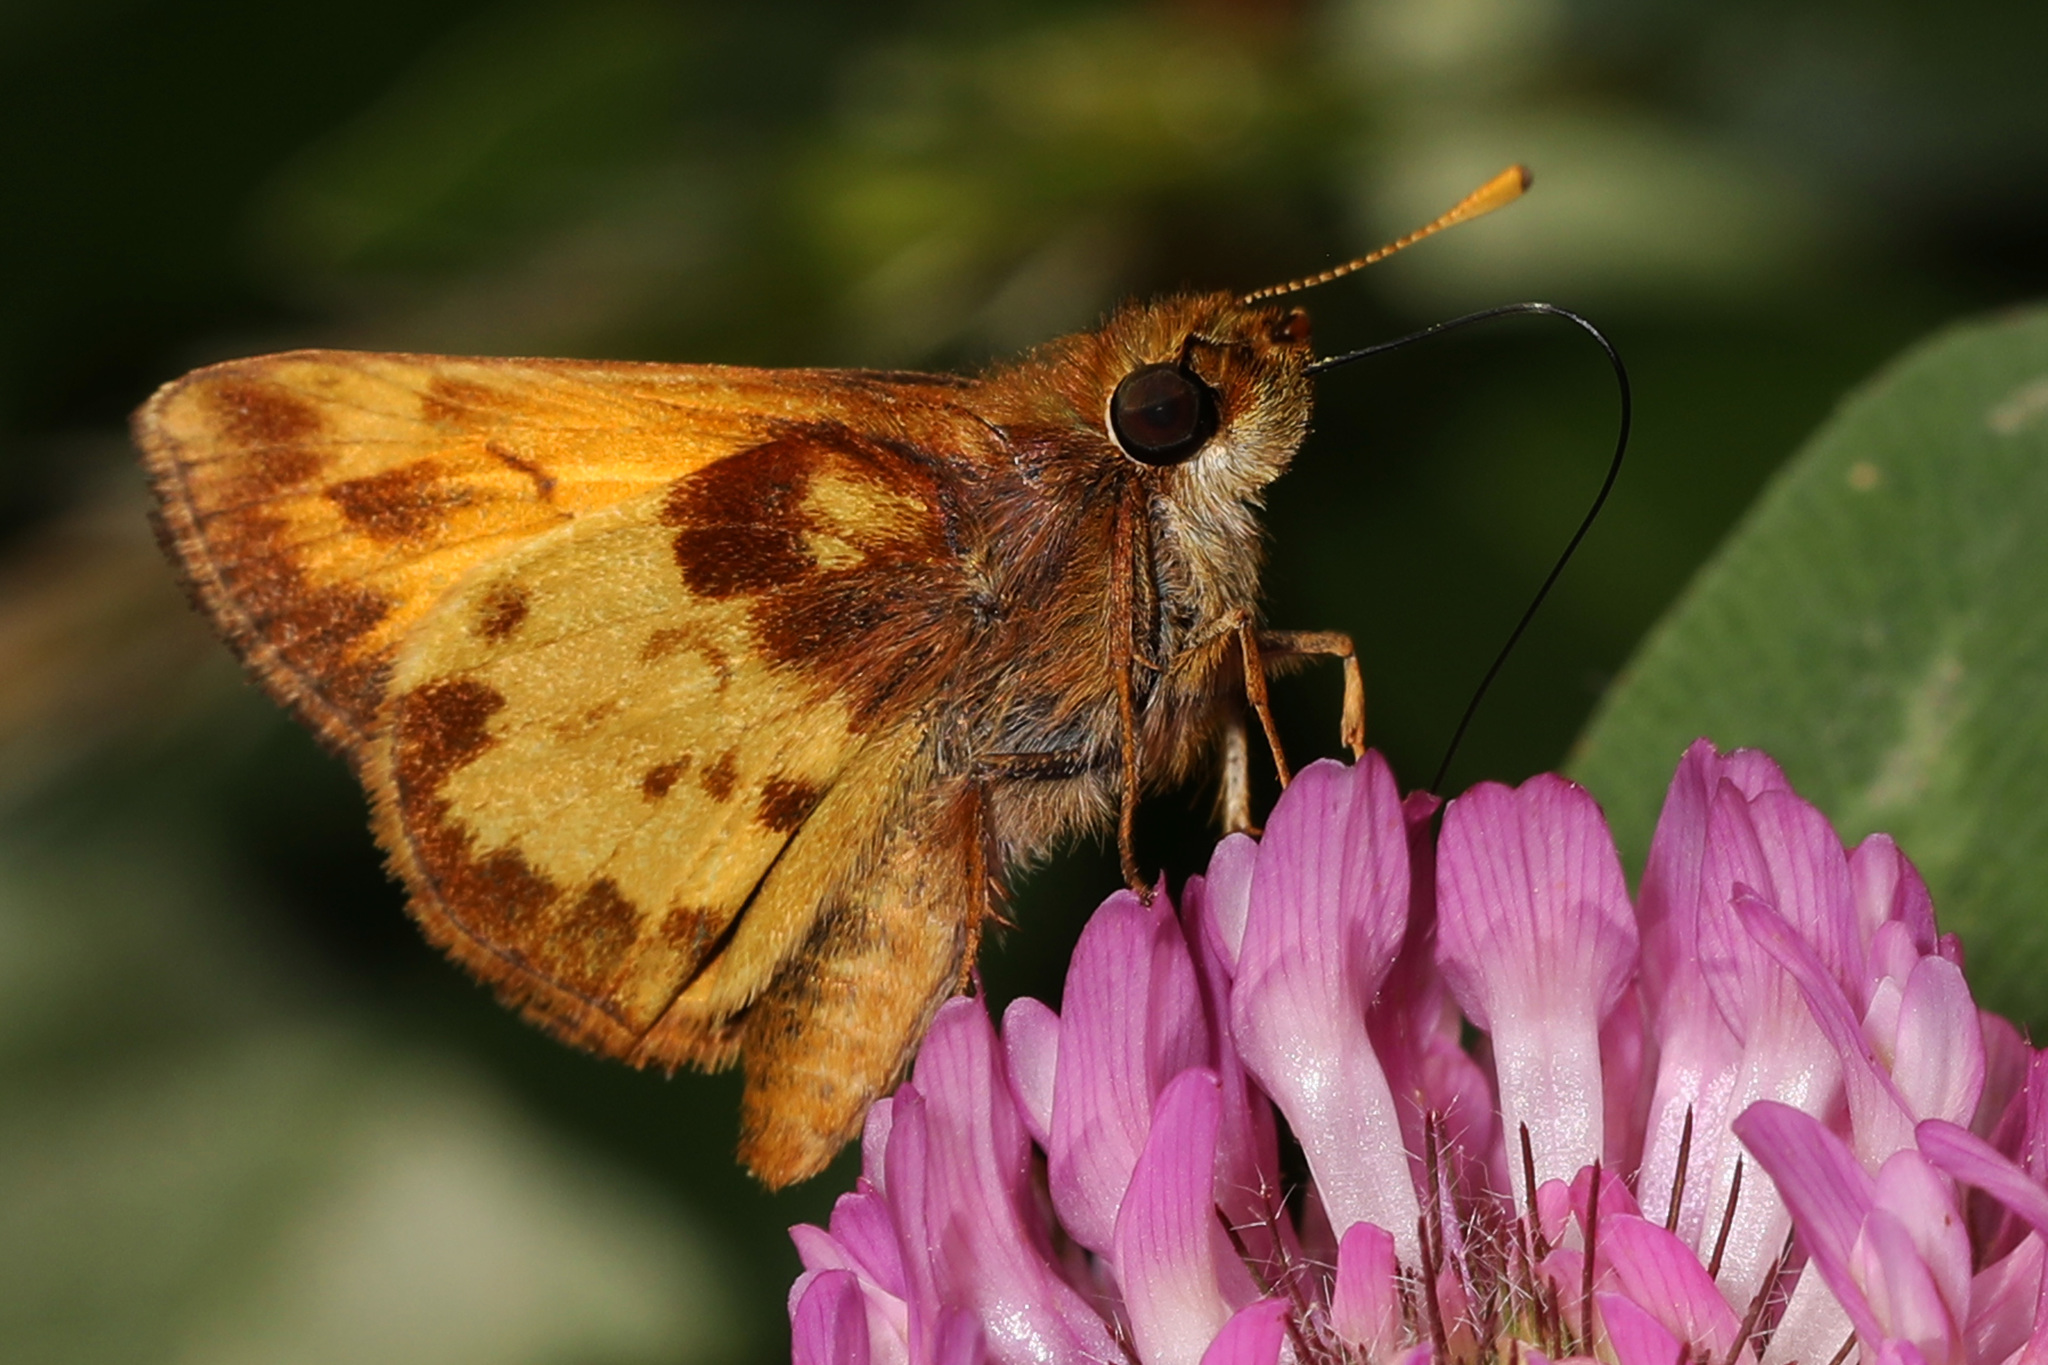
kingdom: Animalia
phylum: Arthropoda
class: Insecta
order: Lepidoptera
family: Hesperiidae
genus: Lon
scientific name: Lon zabulon
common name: Zabulon skipper
